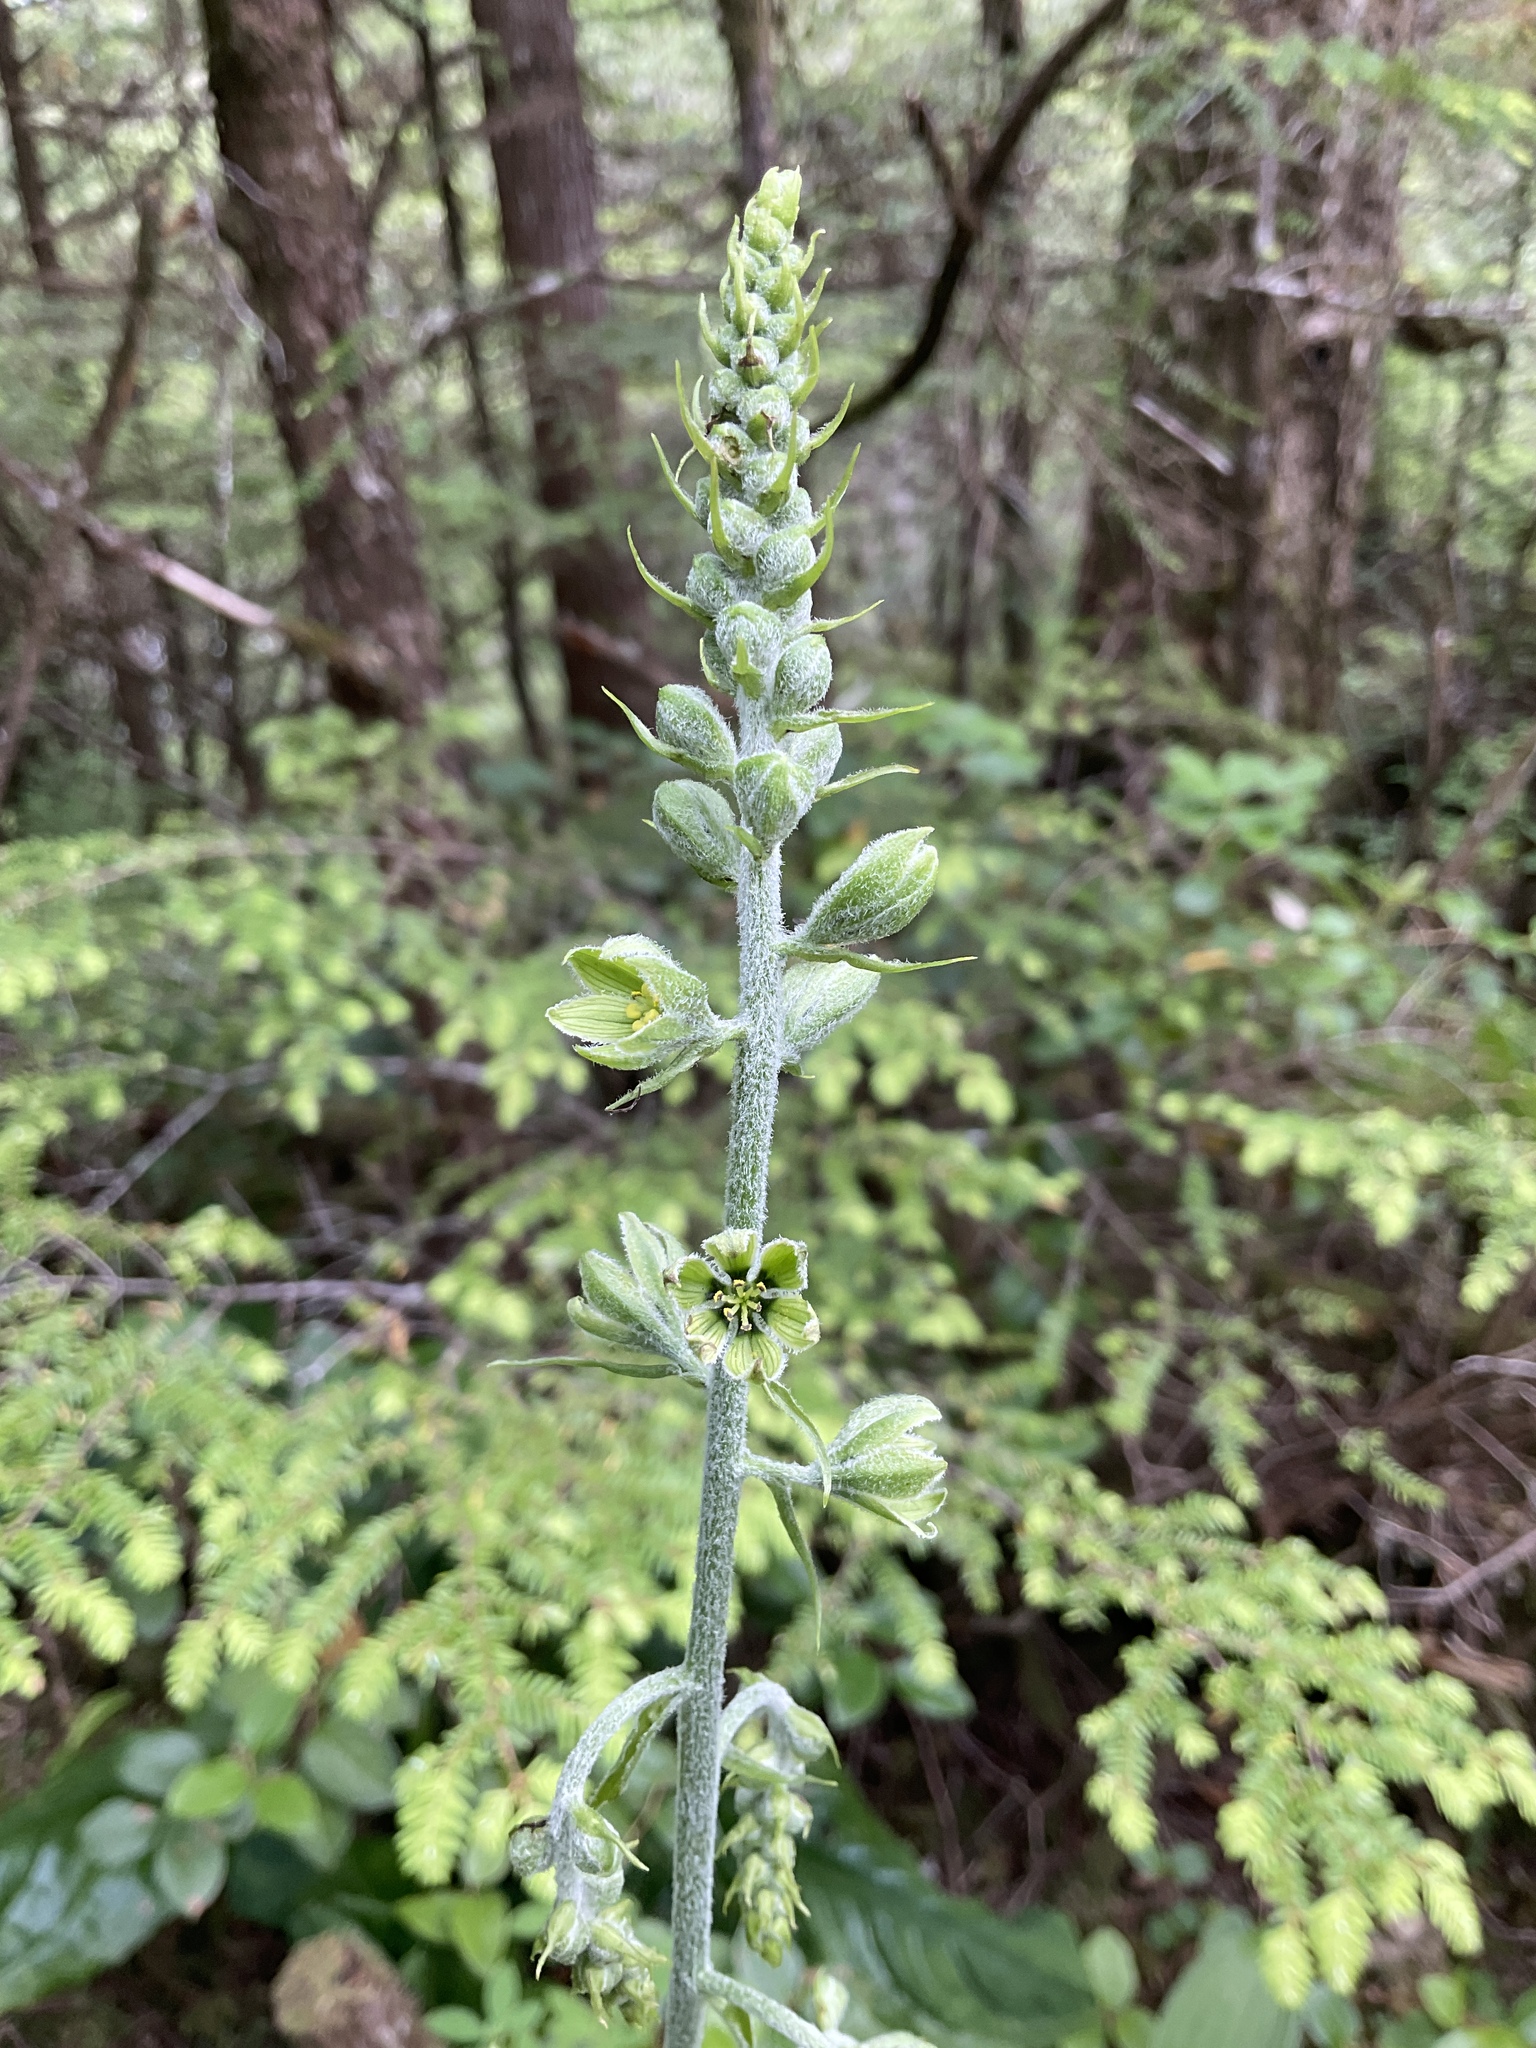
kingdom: Plantae
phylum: Tracheophyta
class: Liliopsida
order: Liliales
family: Melanthiaceae
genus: Veratrum
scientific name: Veratrum viride
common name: American false hellebore
